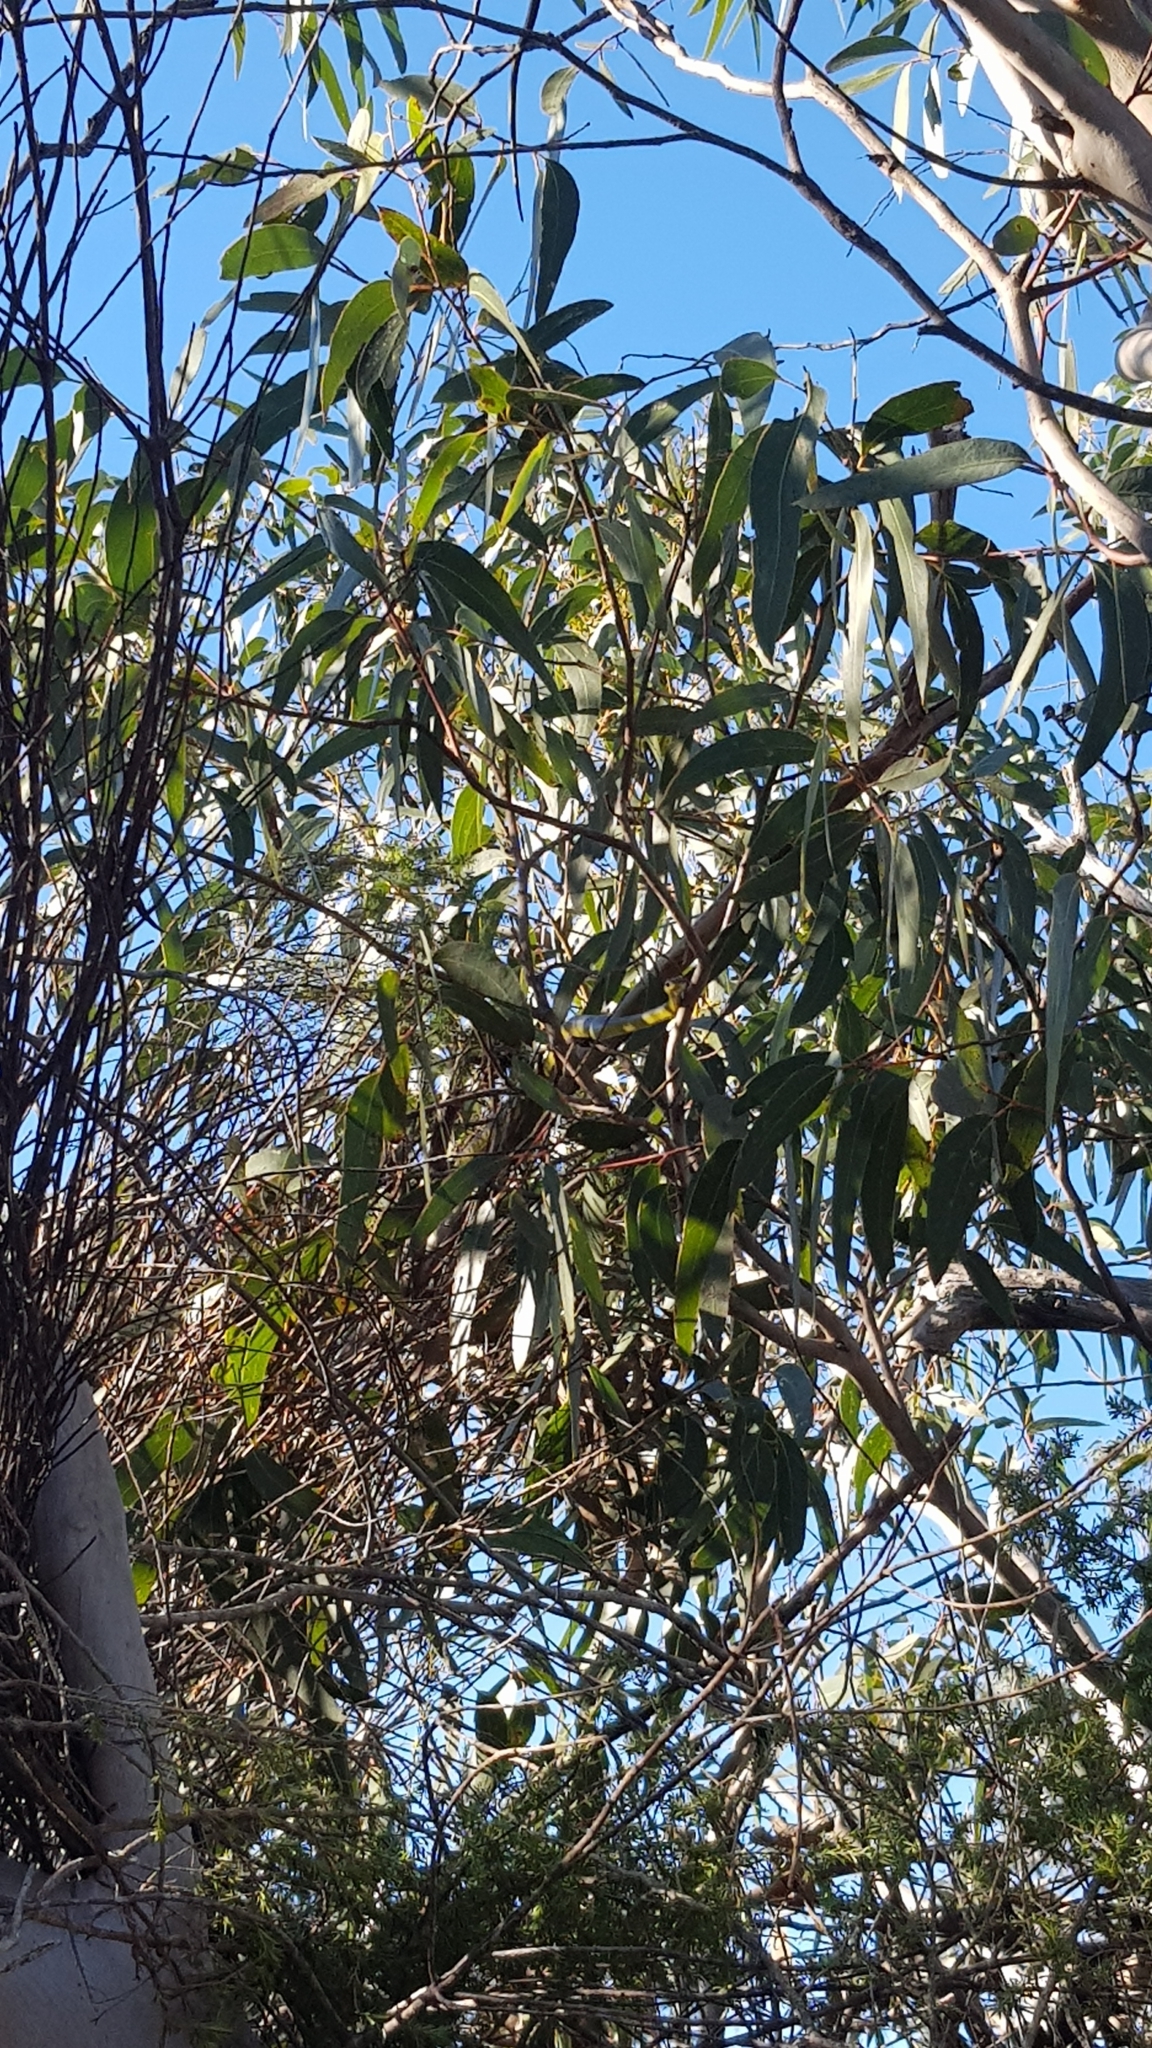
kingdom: Animalia
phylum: Chordata
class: Squamata
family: Colubridae
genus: Dendrelaphis
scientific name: Dendrelaphis punctulatus
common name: Common tree snake
